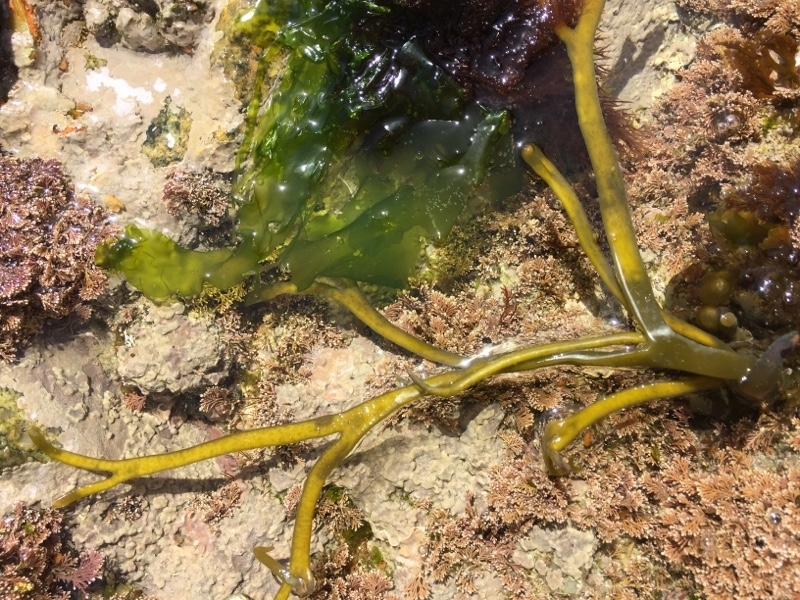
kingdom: Chromista
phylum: Ochrophyta
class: Phaeophyceae
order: Fucales
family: Himanthaliaceae
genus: Himanthalia
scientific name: Himanthalia elongata
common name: Sea-thong
